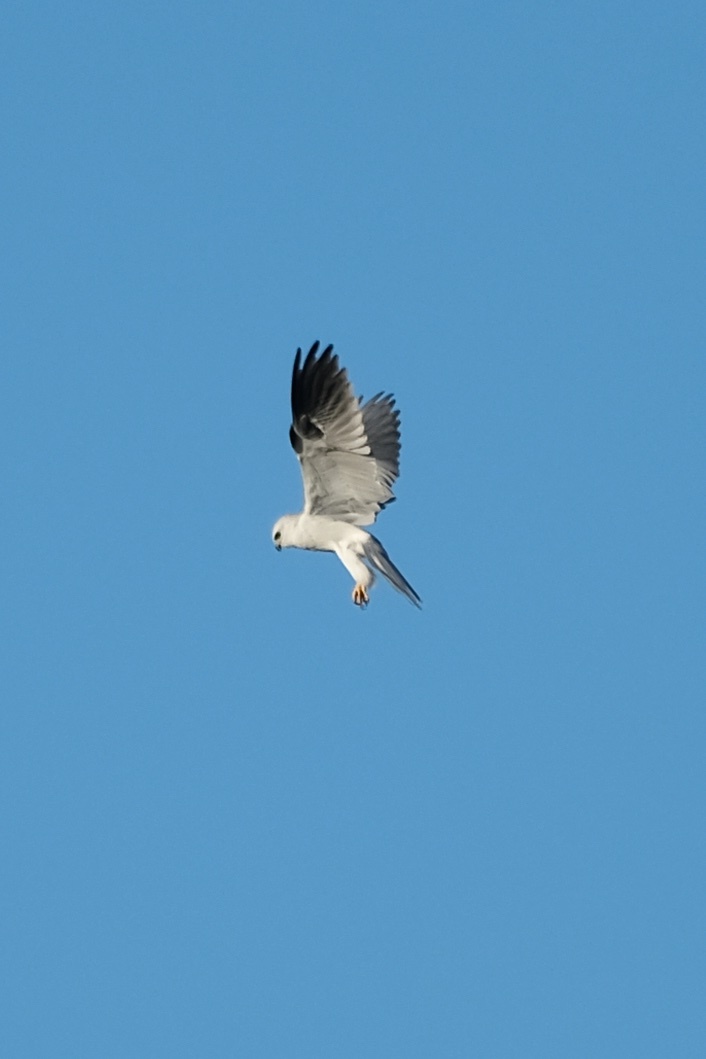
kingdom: Animalia
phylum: Chordata
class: Aves
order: Accipitriformes
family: Accipitridae
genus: Elanus
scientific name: Elanus leucurus
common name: White-tailed kite
